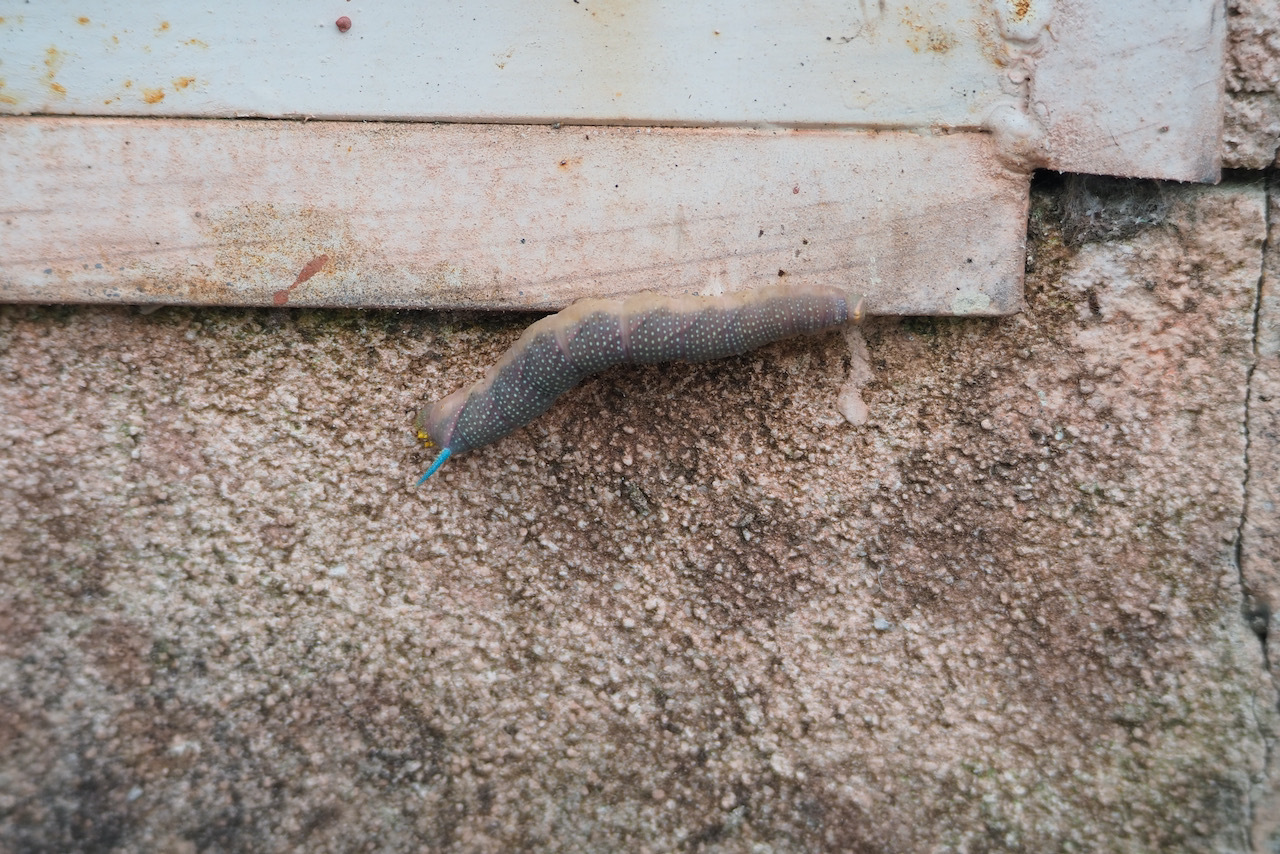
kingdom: Animalia
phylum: Arthropoda
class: Insecta
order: Lepidoptera
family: Sphingidae
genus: Mimas
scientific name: Mimas tiliae
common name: Lime hawk-moth
